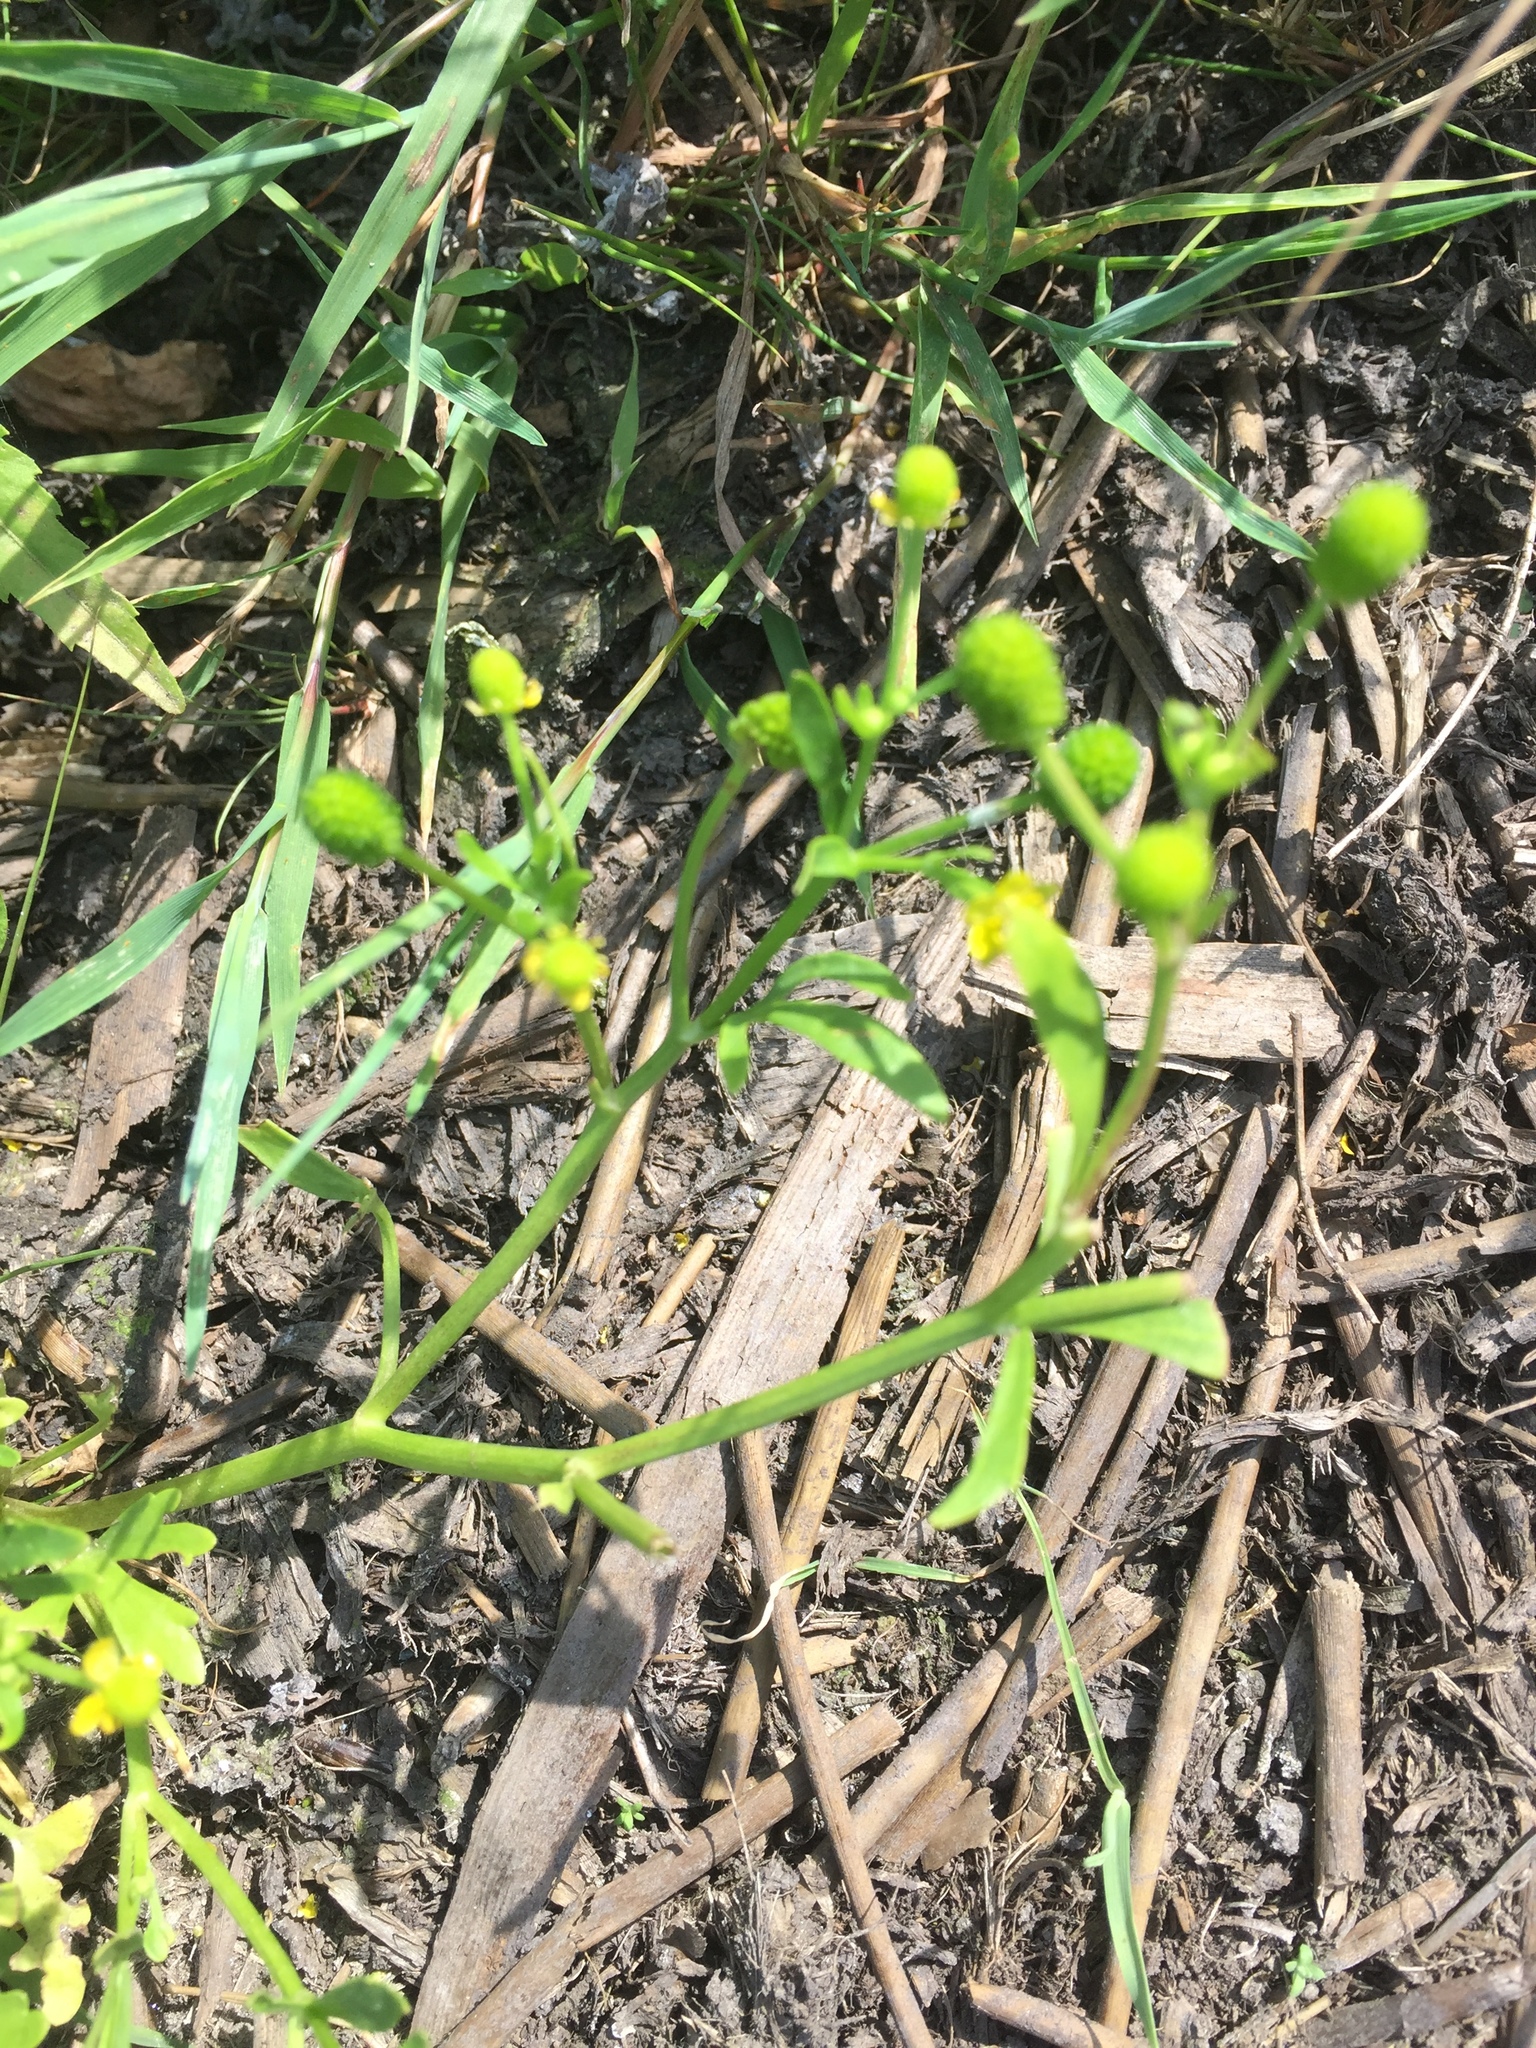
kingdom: Plantae
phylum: Tracheophyta
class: Magnoliopsida
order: Ranunculales
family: Ranunculaceae
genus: Ranunculus
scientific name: Ranunculus sceleratus
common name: Celery-leaved buttercup
